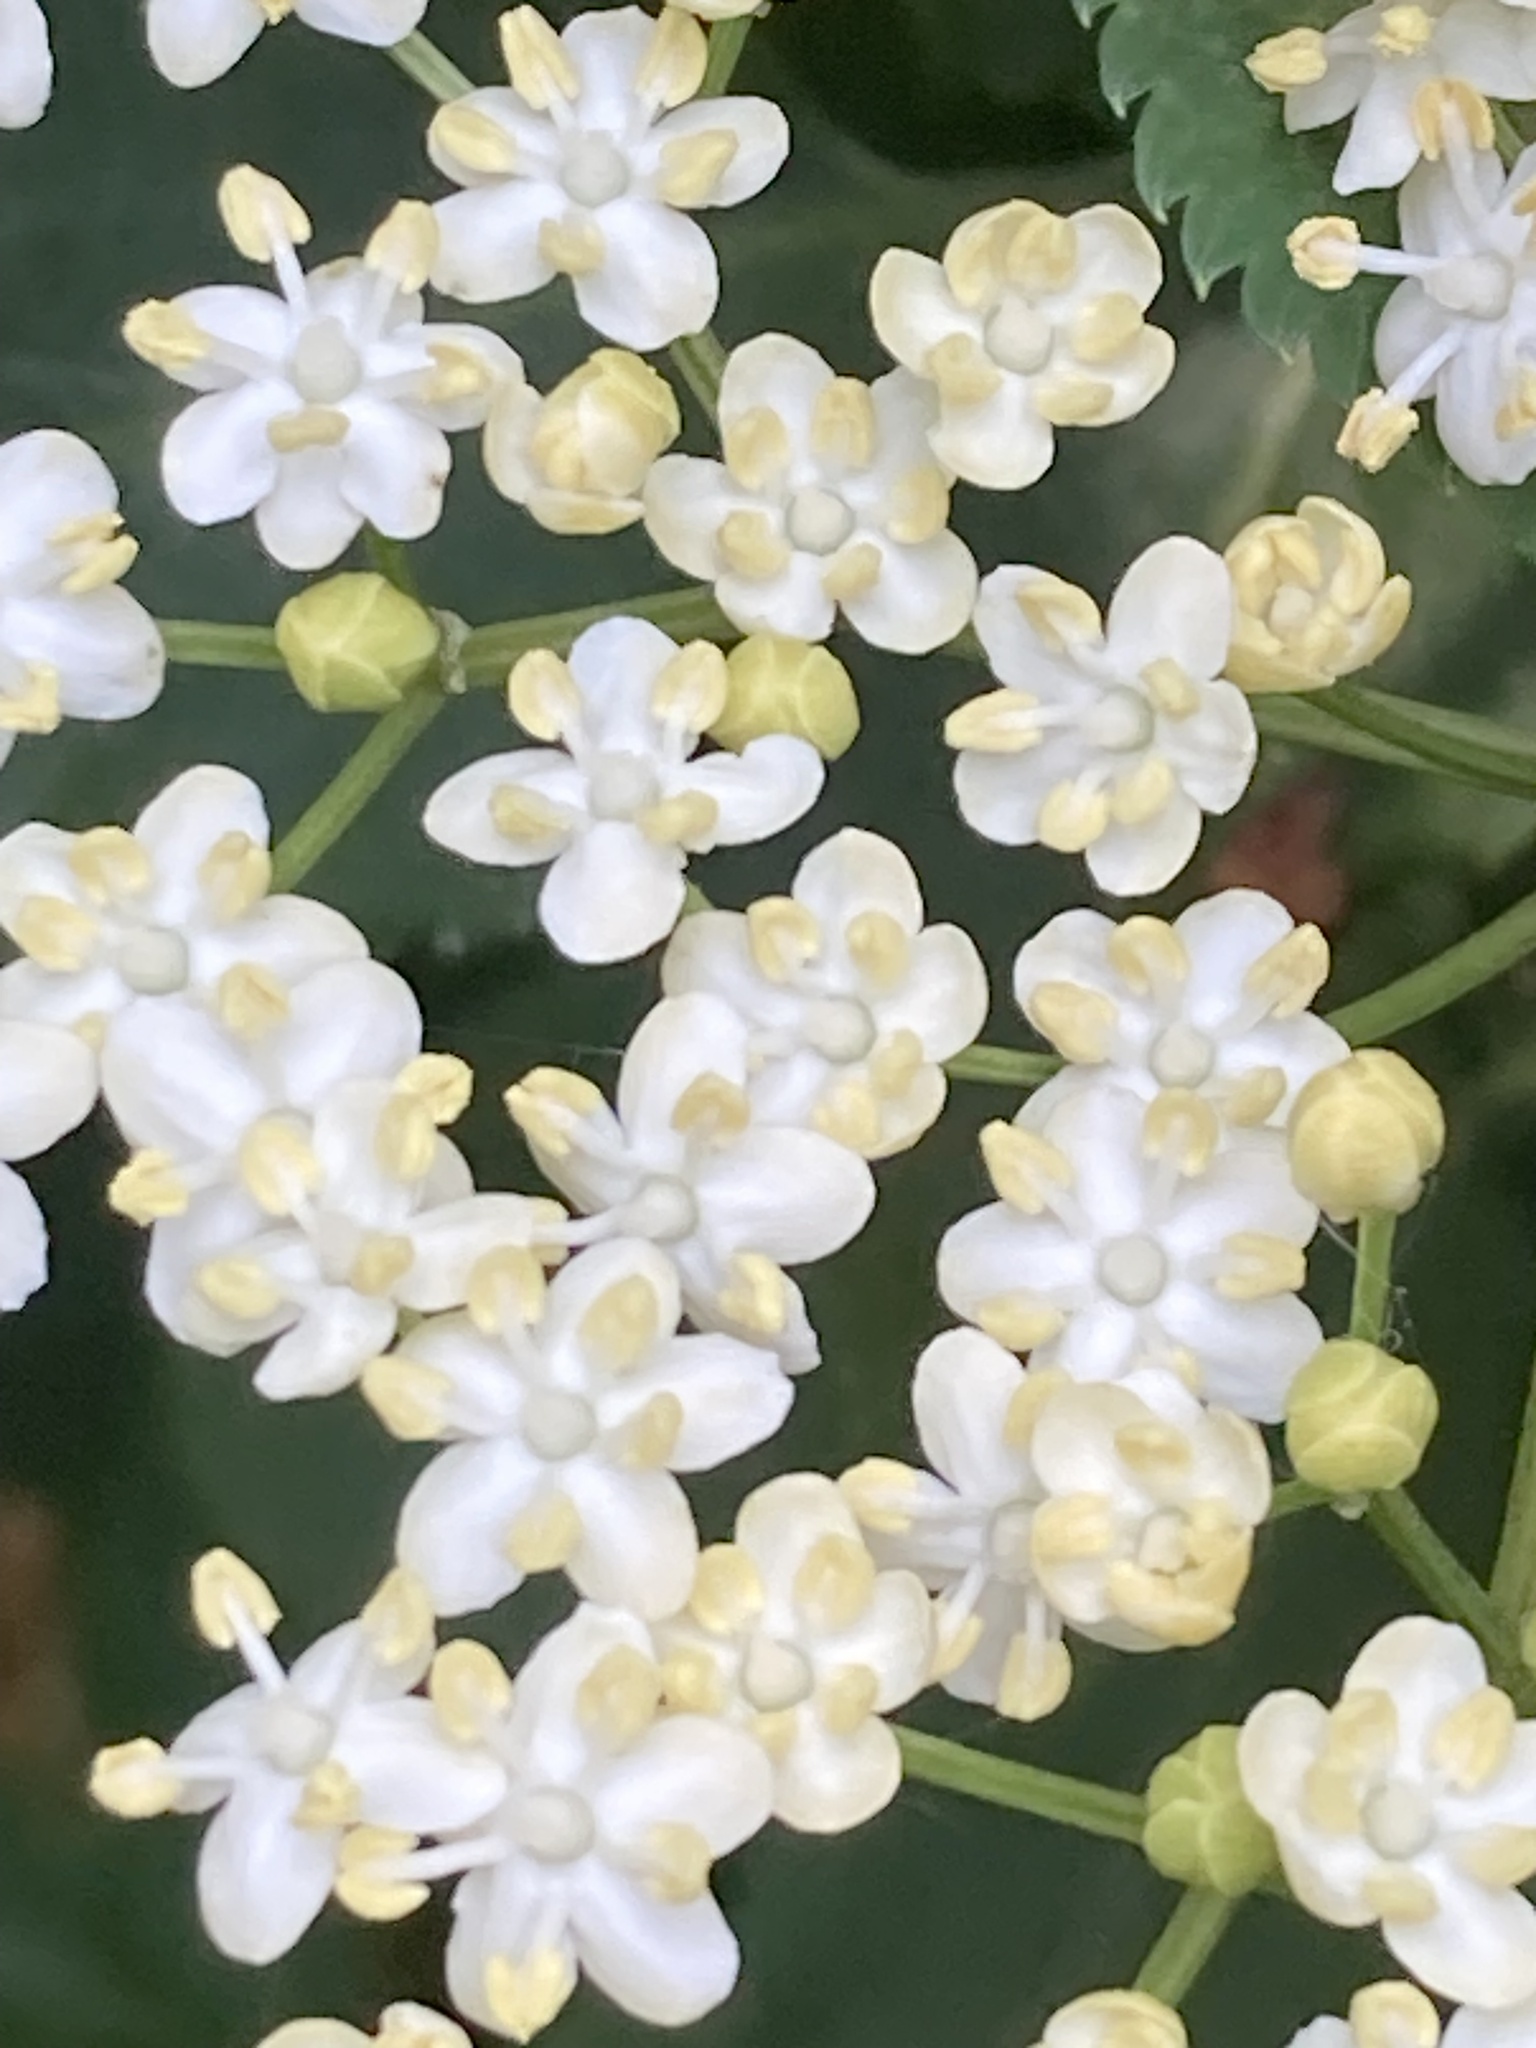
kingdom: Plantae
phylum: Tracheophyta
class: Magnoliopsida
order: Dipsacales
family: Viburnaceae
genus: Sambucus
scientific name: Sambucus nigra
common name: Elder
